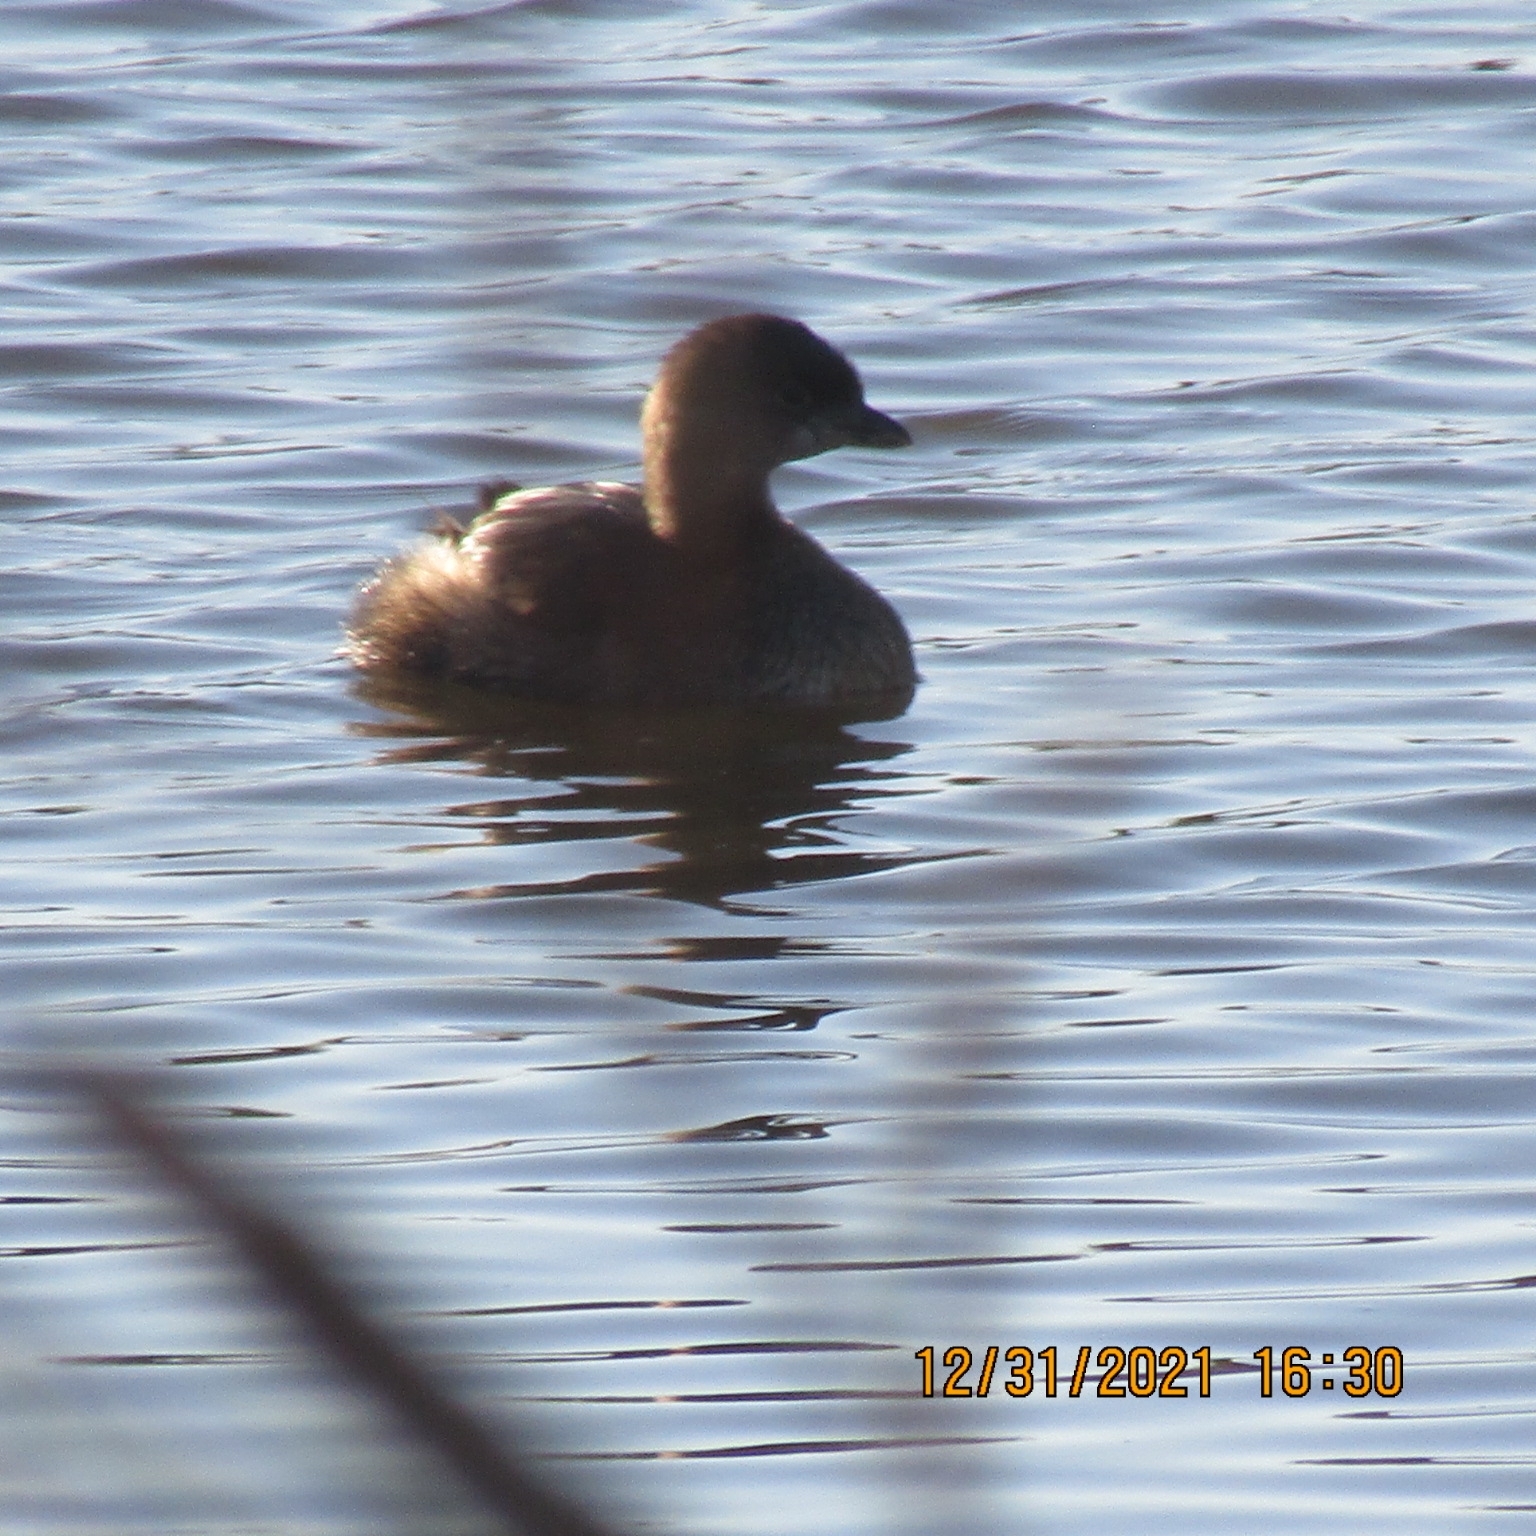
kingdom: Animalia
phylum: Chordata
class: Aves
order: Podicipediformes
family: Podicipedidae
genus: Podilymbus
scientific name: Podilymbus podiceps
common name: Pied-billed grebe
